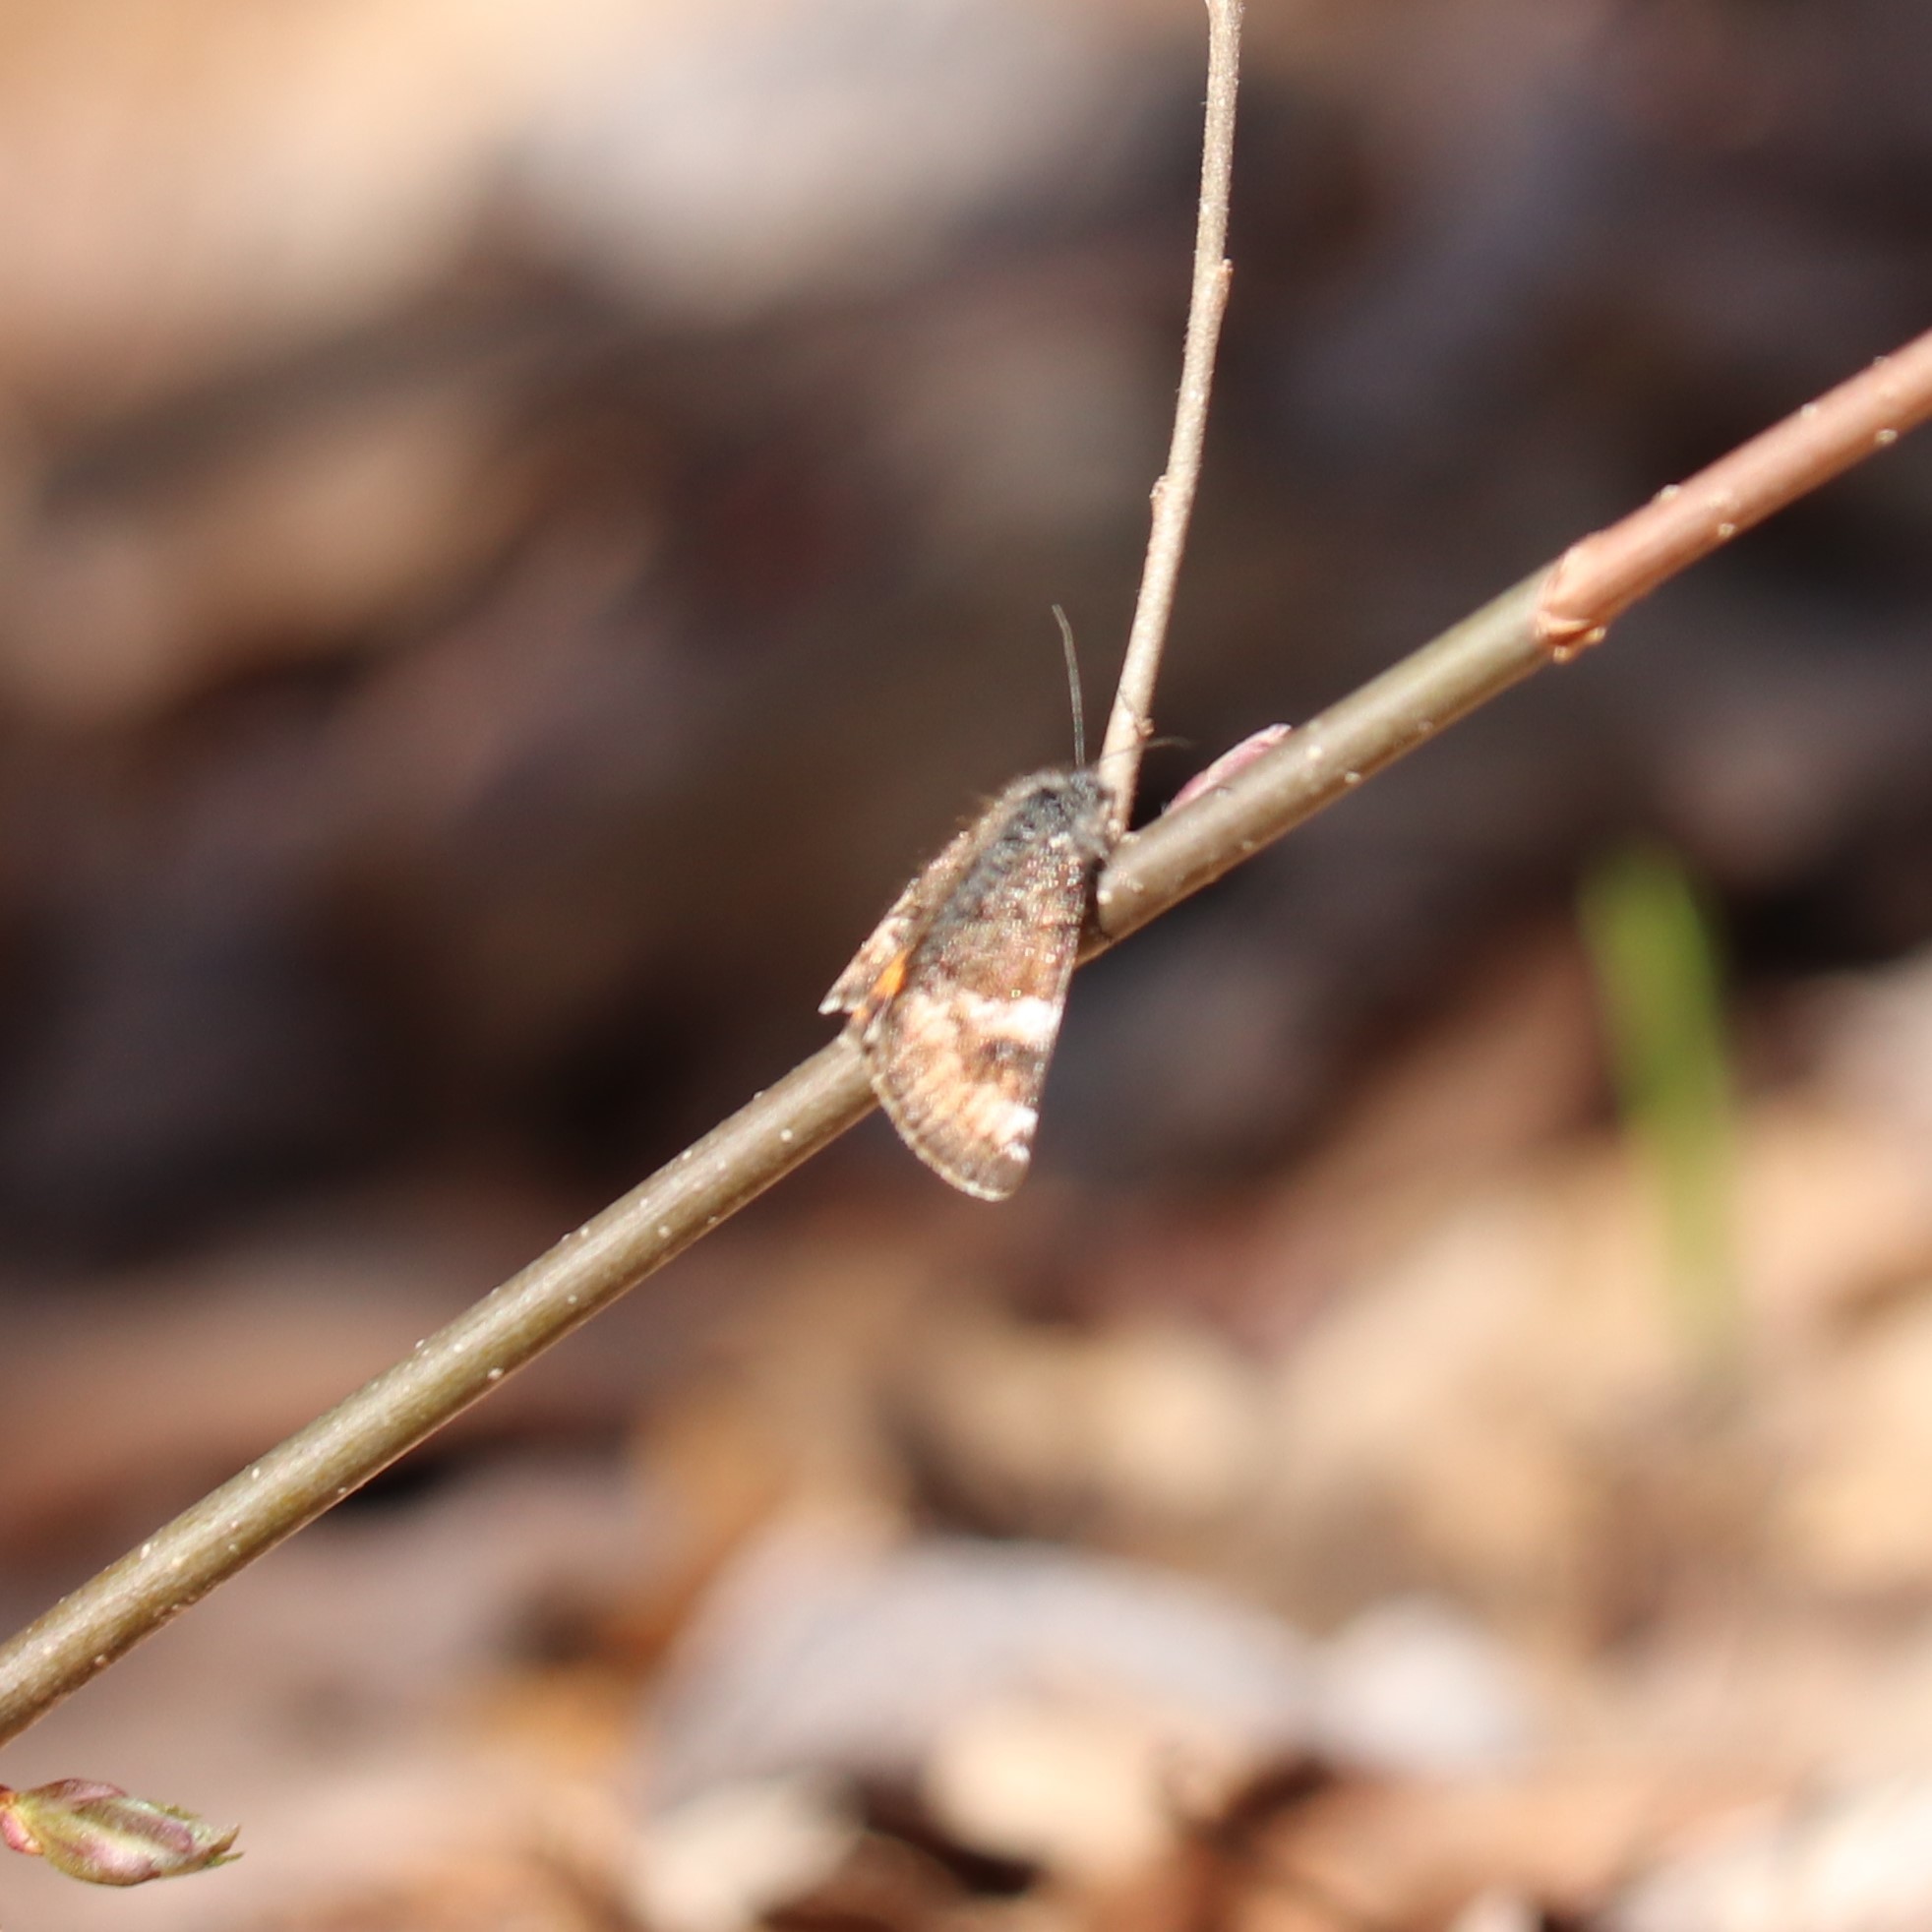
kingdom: Animalia
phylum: Arthropoda
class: Insecta
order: Lepidoptera
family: Geometridae
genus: Archiearis
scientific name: Archiearis infans
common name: First born geometer
